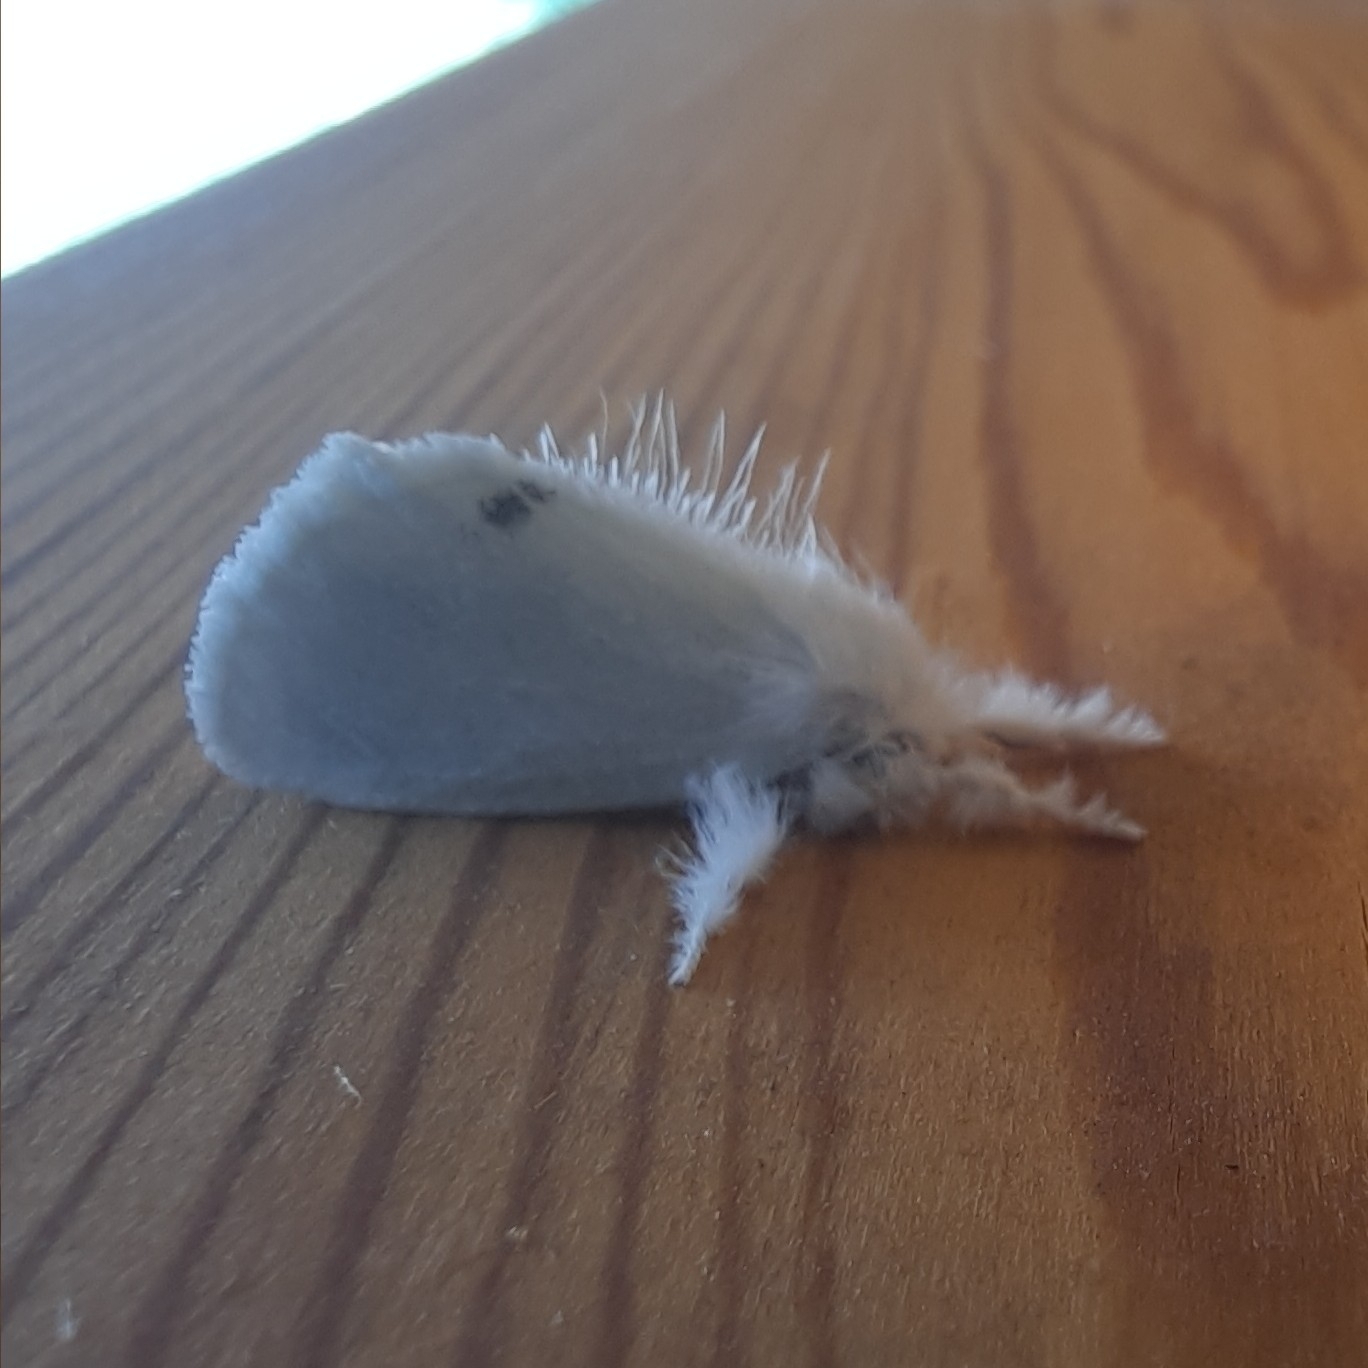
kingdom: Animalia
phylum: Arthropoda
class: Insecta
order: Lepidoptera
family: Erebidae
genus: Sphrageidus
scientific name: Sphrageidus similis
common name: Yellow-tail
